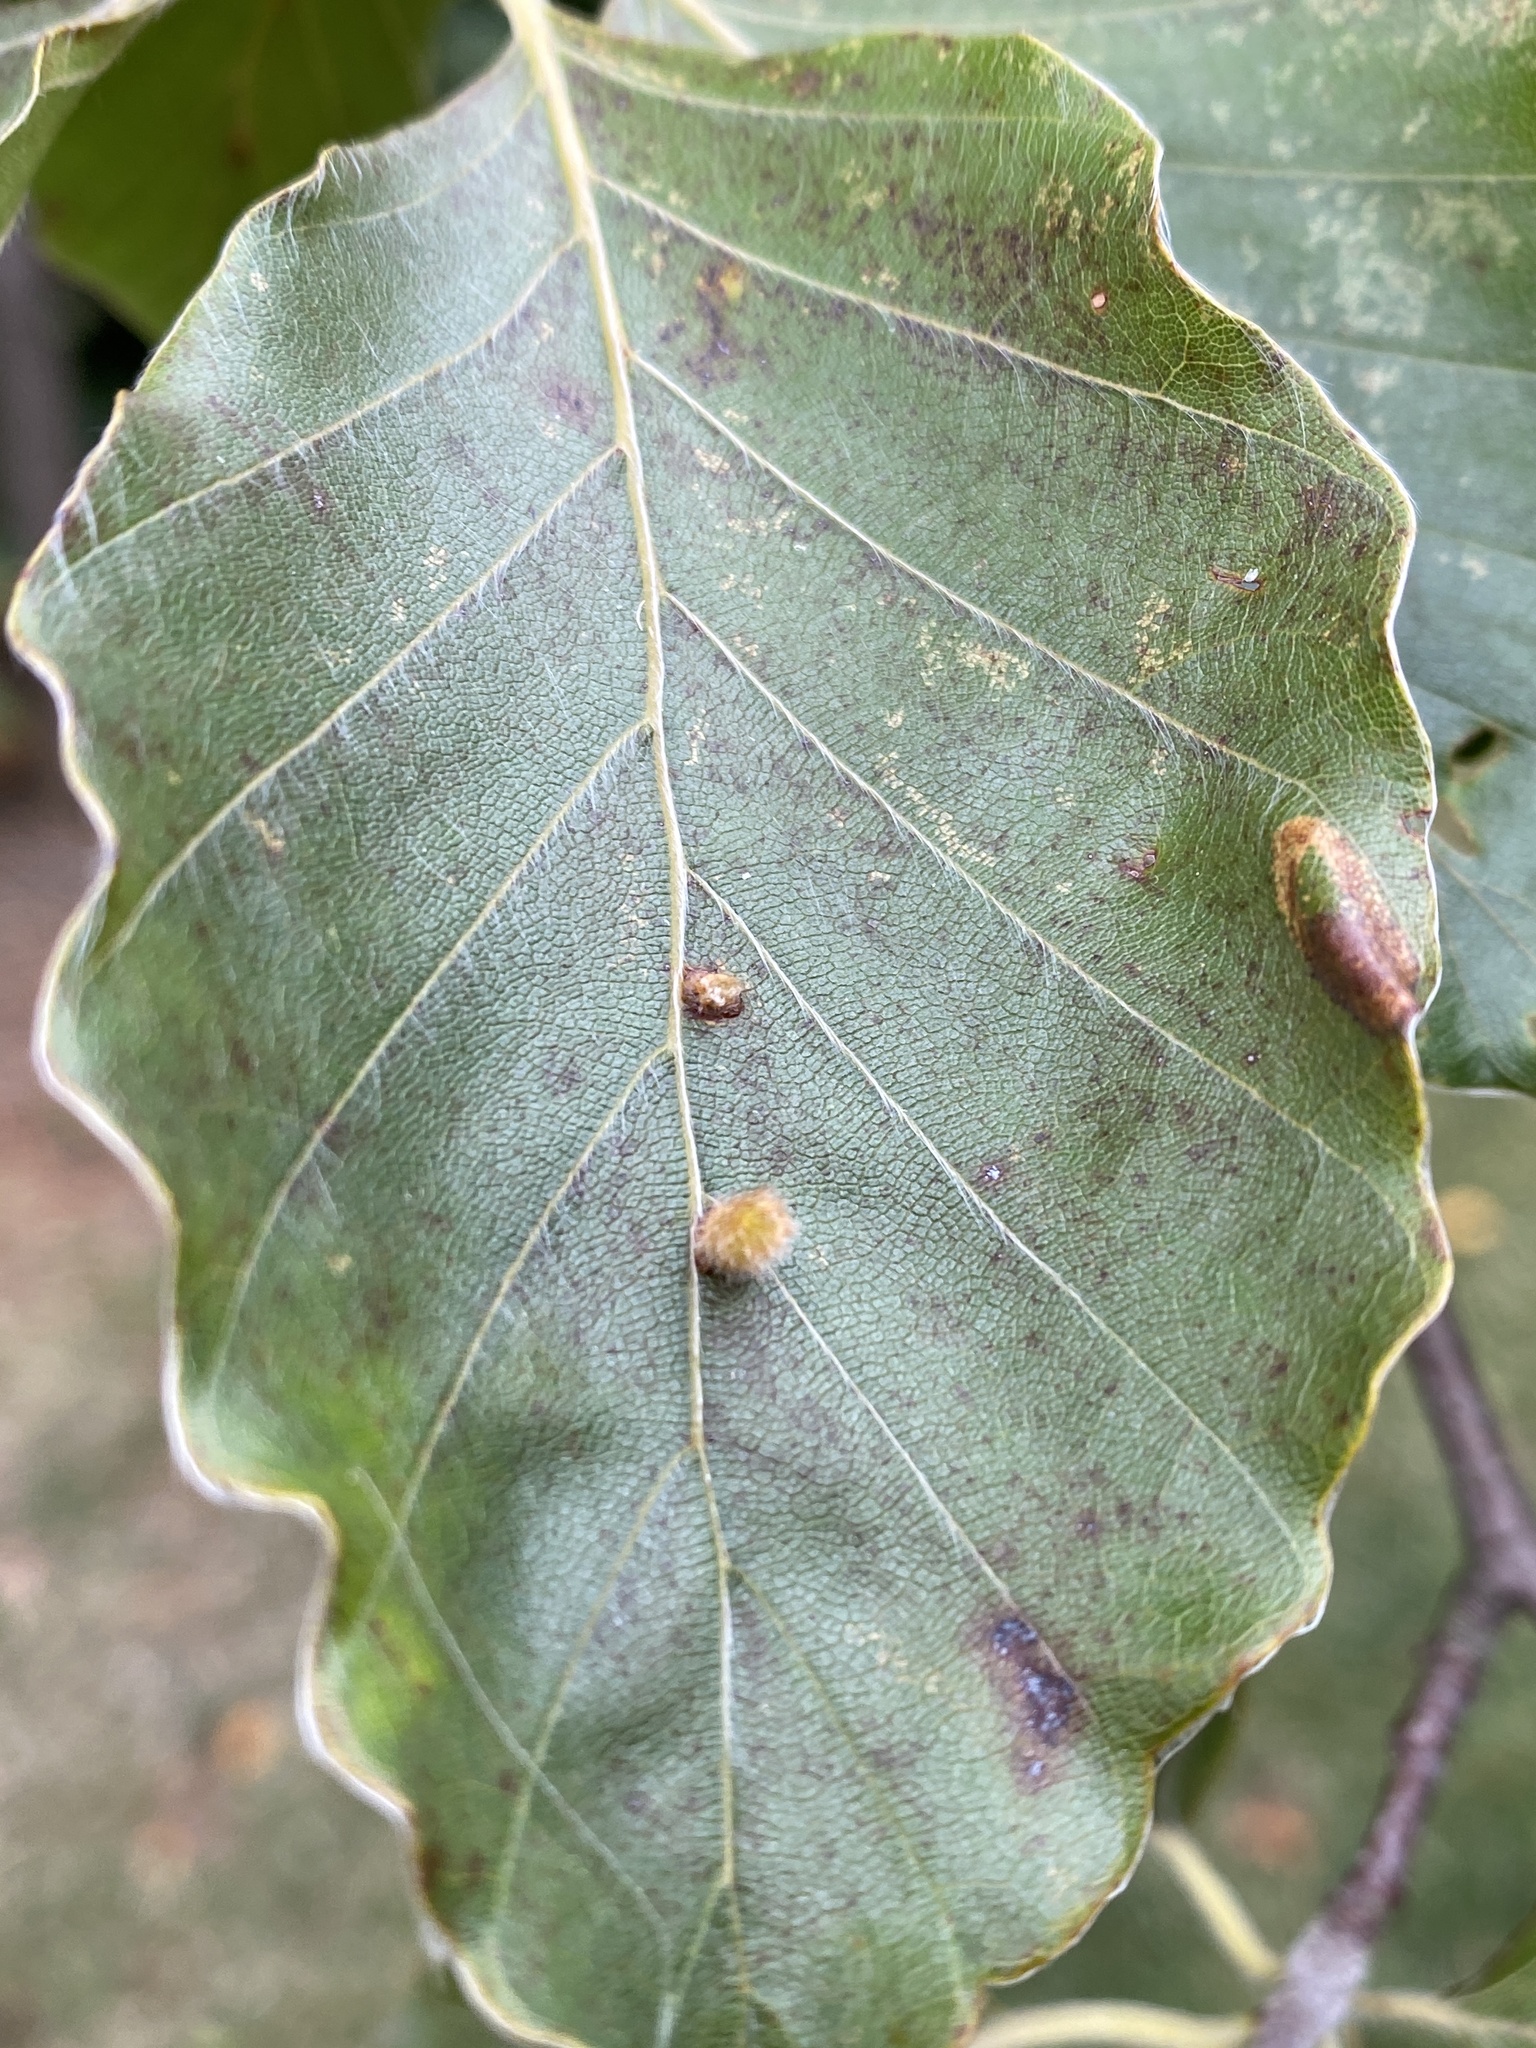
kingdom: Animalia
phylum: Arthropoda
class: Insecta
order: Diptera
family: Cecidomyiidae
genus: Hartigiola
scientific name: Hartigiola annulipes
